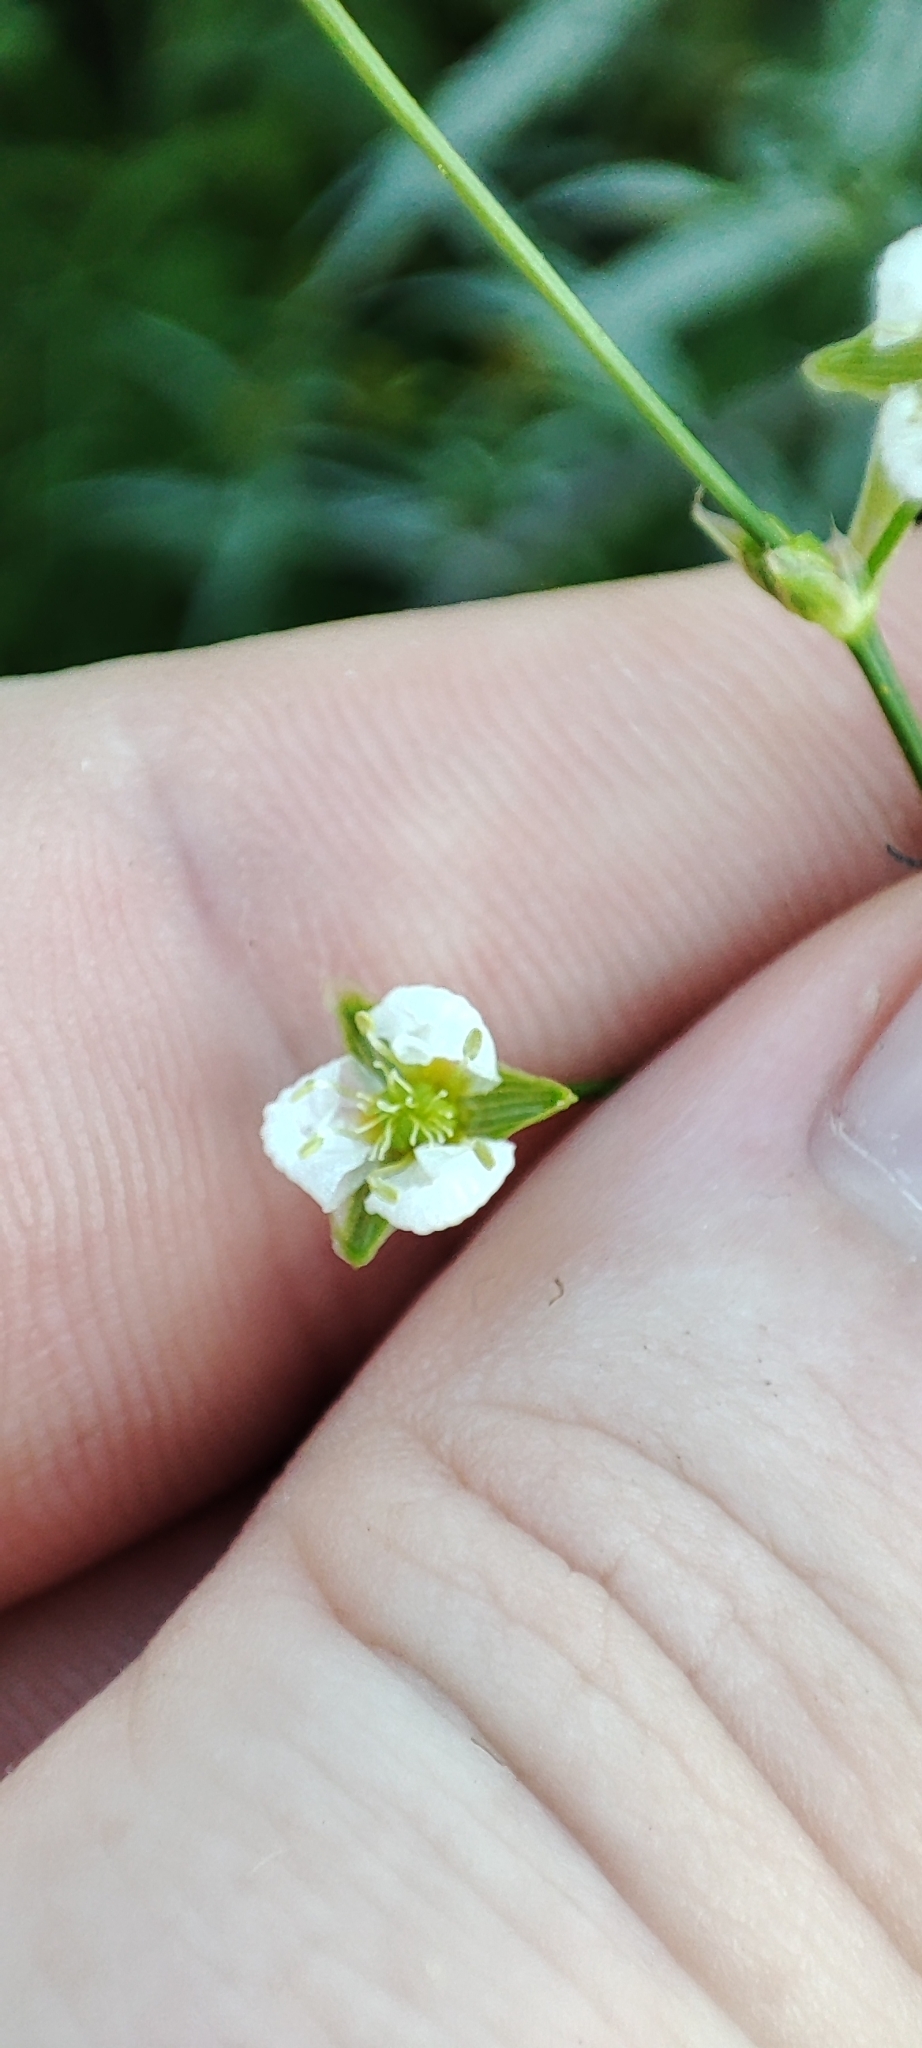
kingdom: Plantae
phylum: Tracheophyta
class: Liliopsida
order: Alismatales
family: Alismataceae
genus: Alisma
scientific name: Alisma plantago-aquatica
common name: Water-plantain
